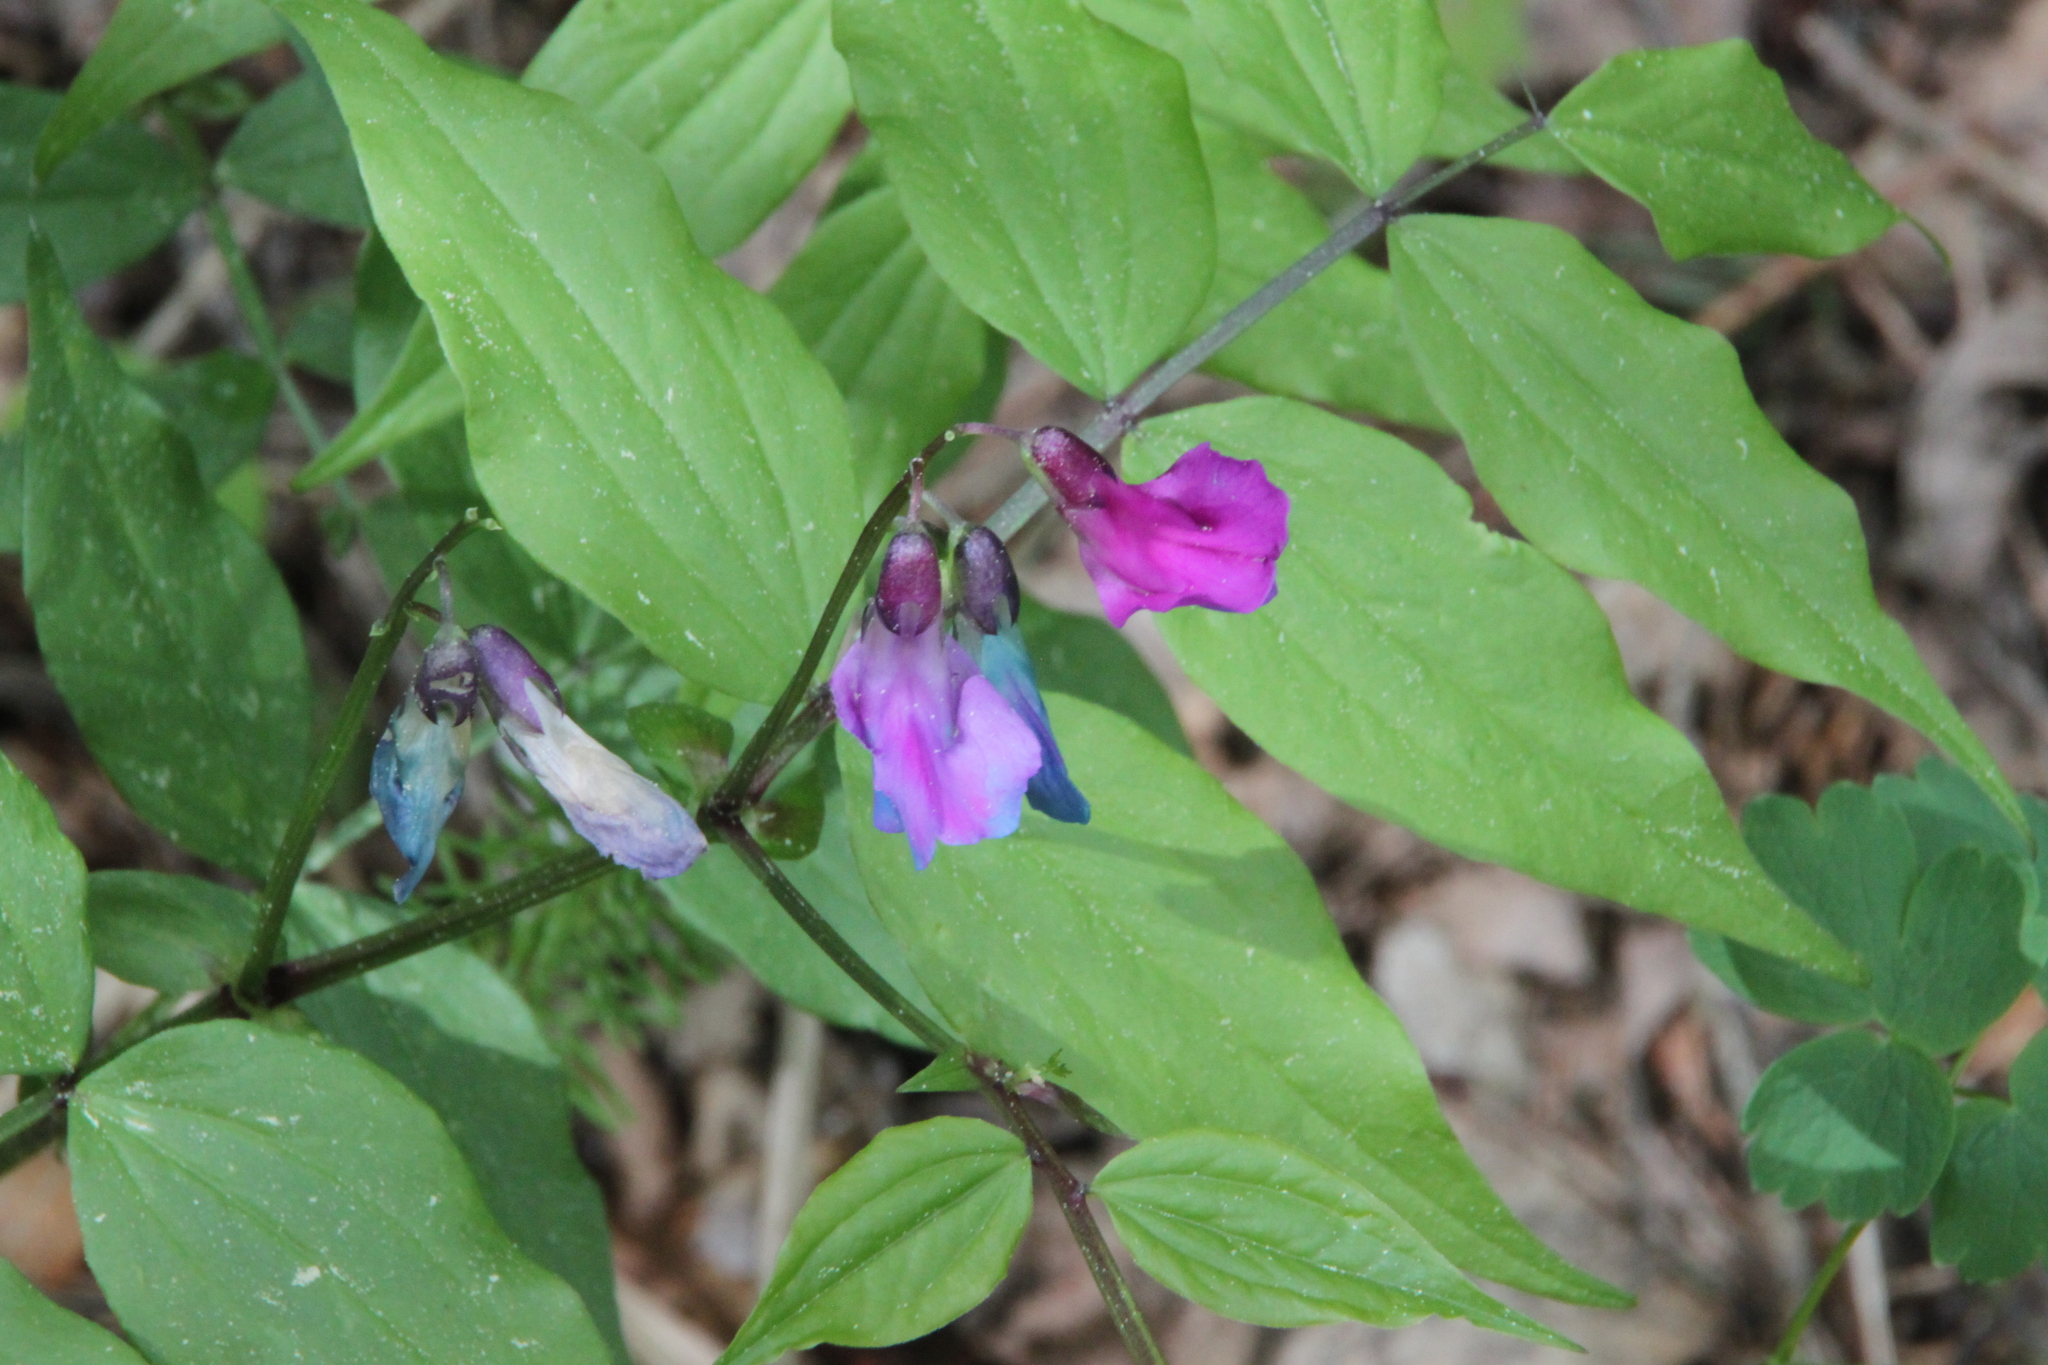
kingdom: Plantae
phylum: Tracheophyta
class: Magnoliopsida
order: Fabales
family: Fabaceae
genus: Lathyrus
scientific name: Lathyrus vernus
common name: Spring pea
